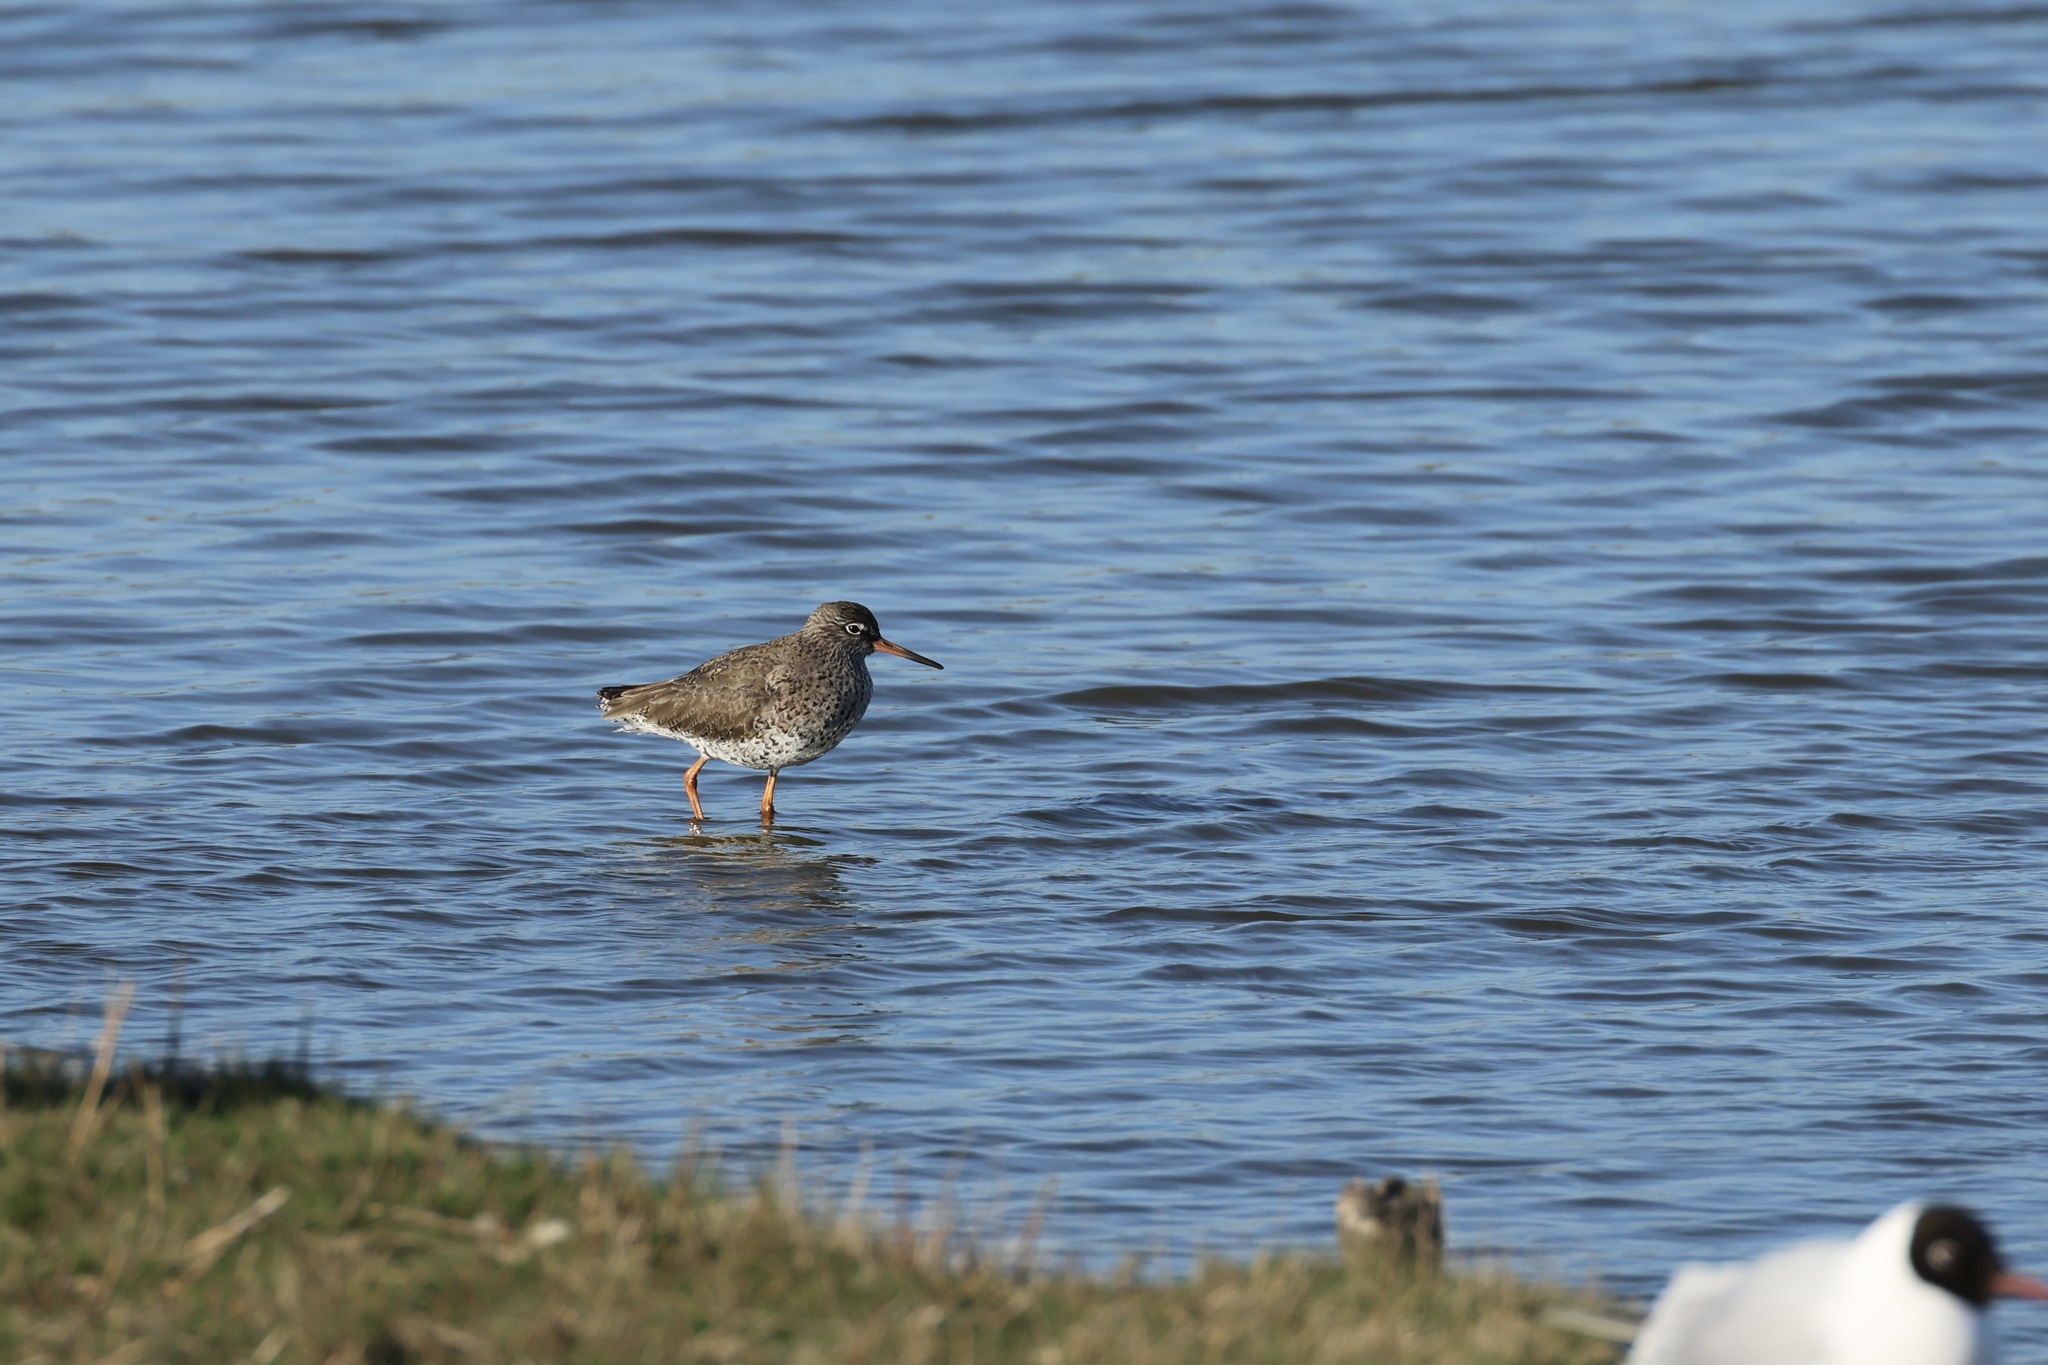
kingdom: Animalia
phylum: Chordata
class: Aves
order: Charadriiformes
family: Scolopacidae
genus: Tringa
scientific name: Tringa totanus
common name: Common redshank
